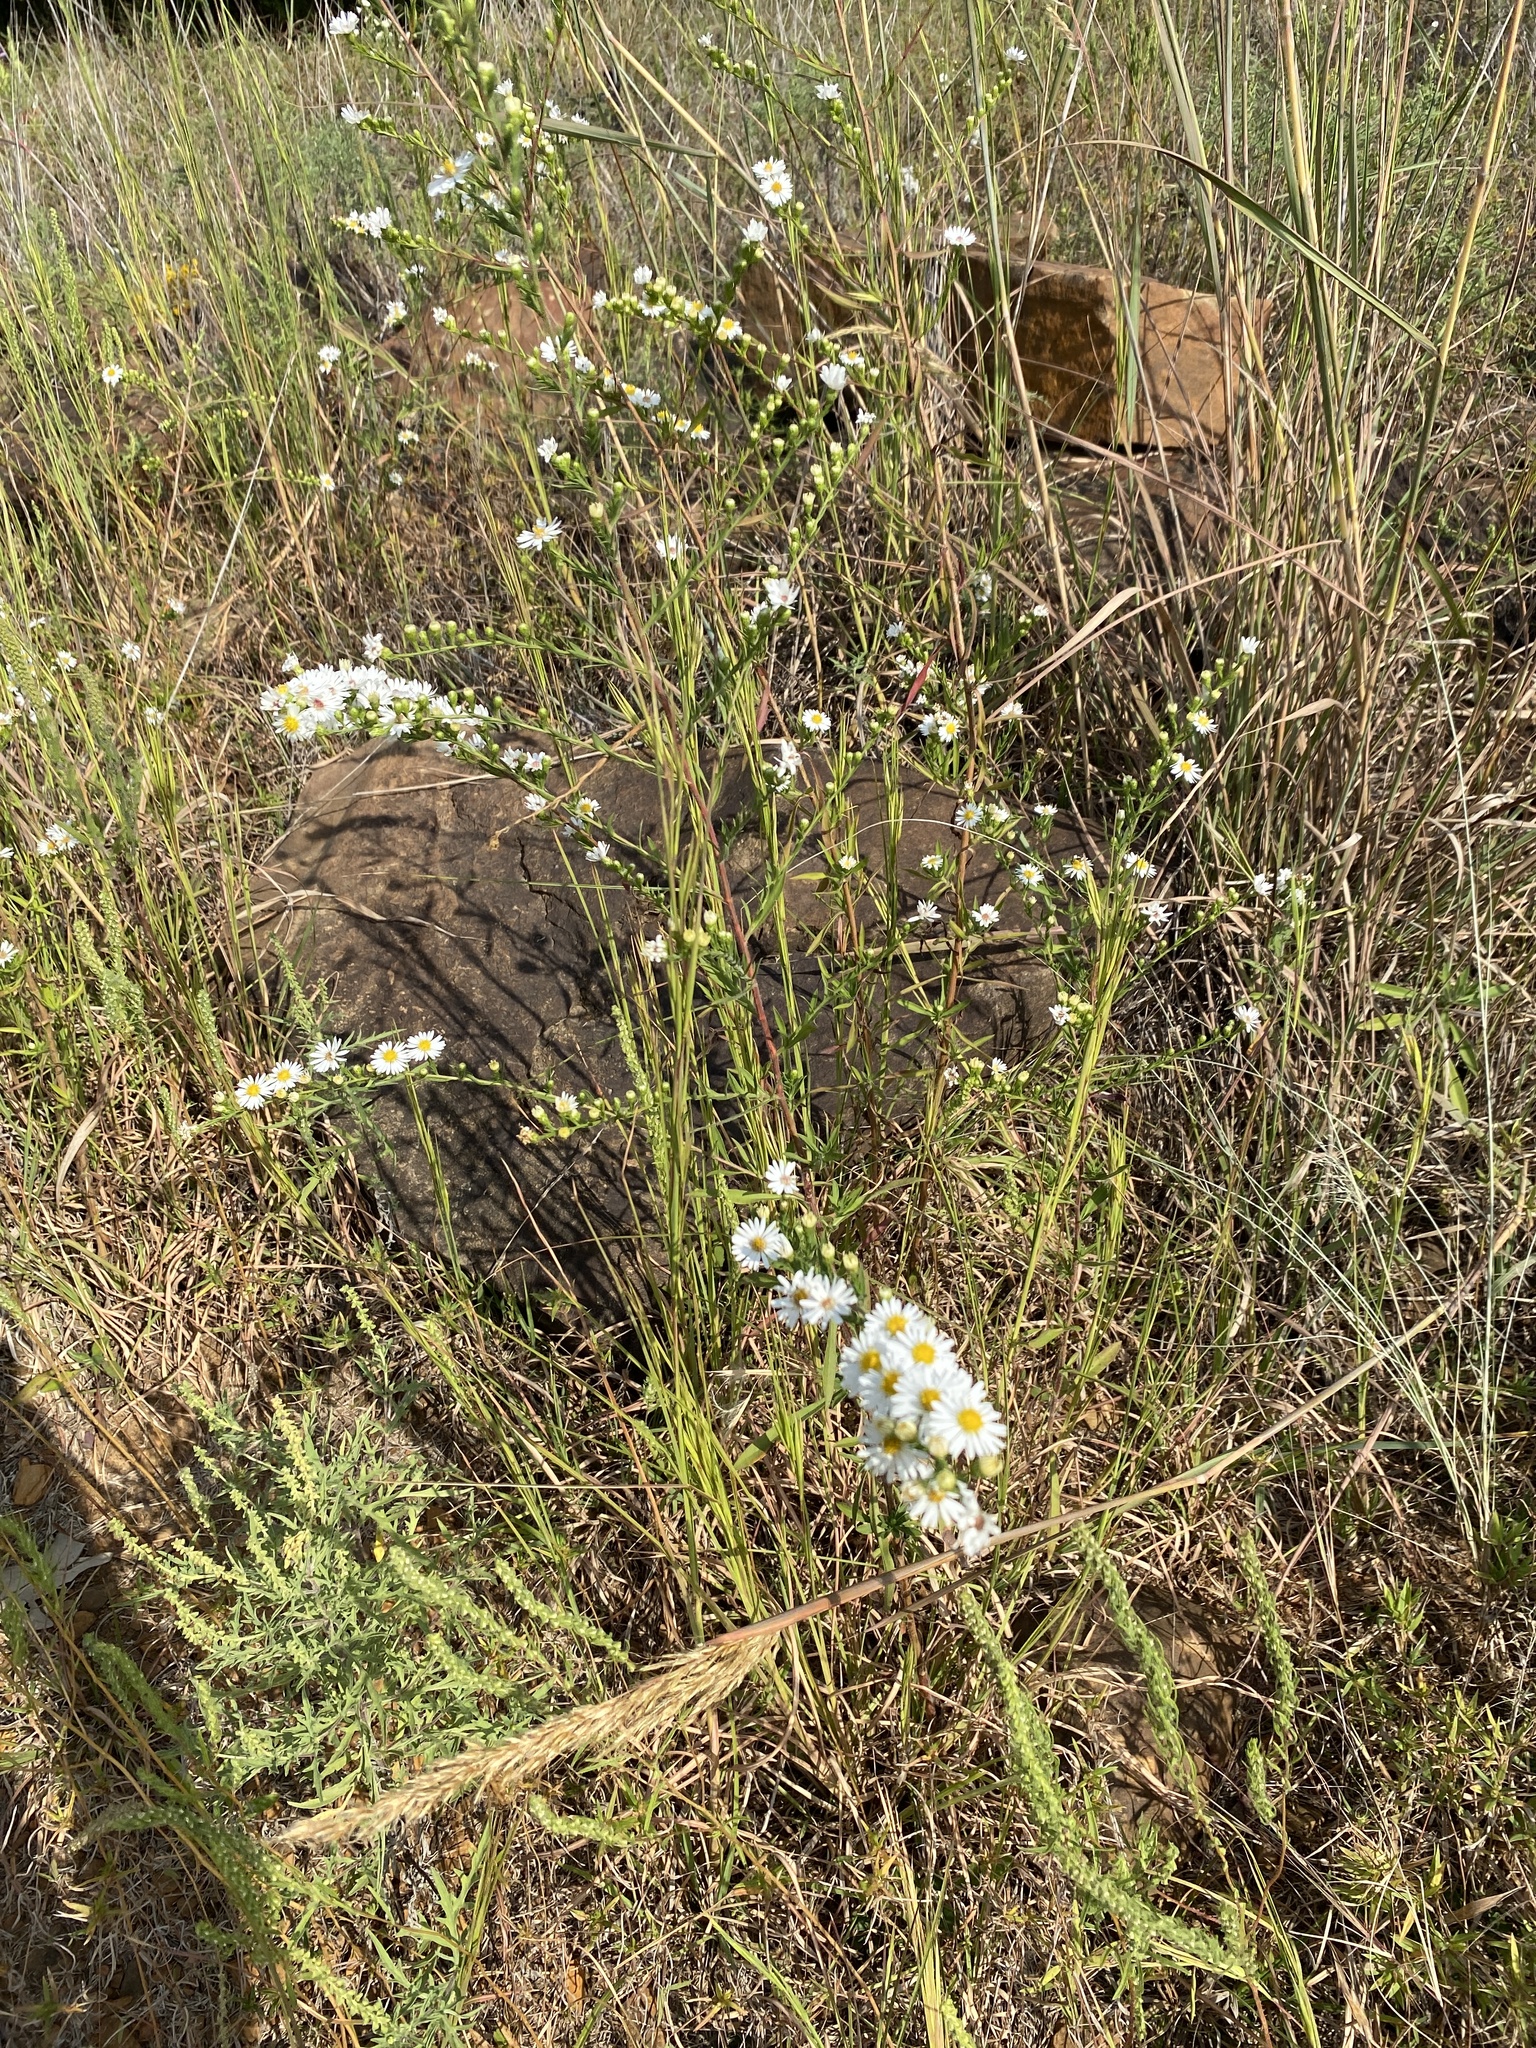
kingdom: Plantae
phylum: Tracheophyta
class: Magnoliopsida
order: Asterales
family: Asteraceae
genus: Symphyotrichum
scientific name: Symphyotrichum pilosum
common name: Awl aster
